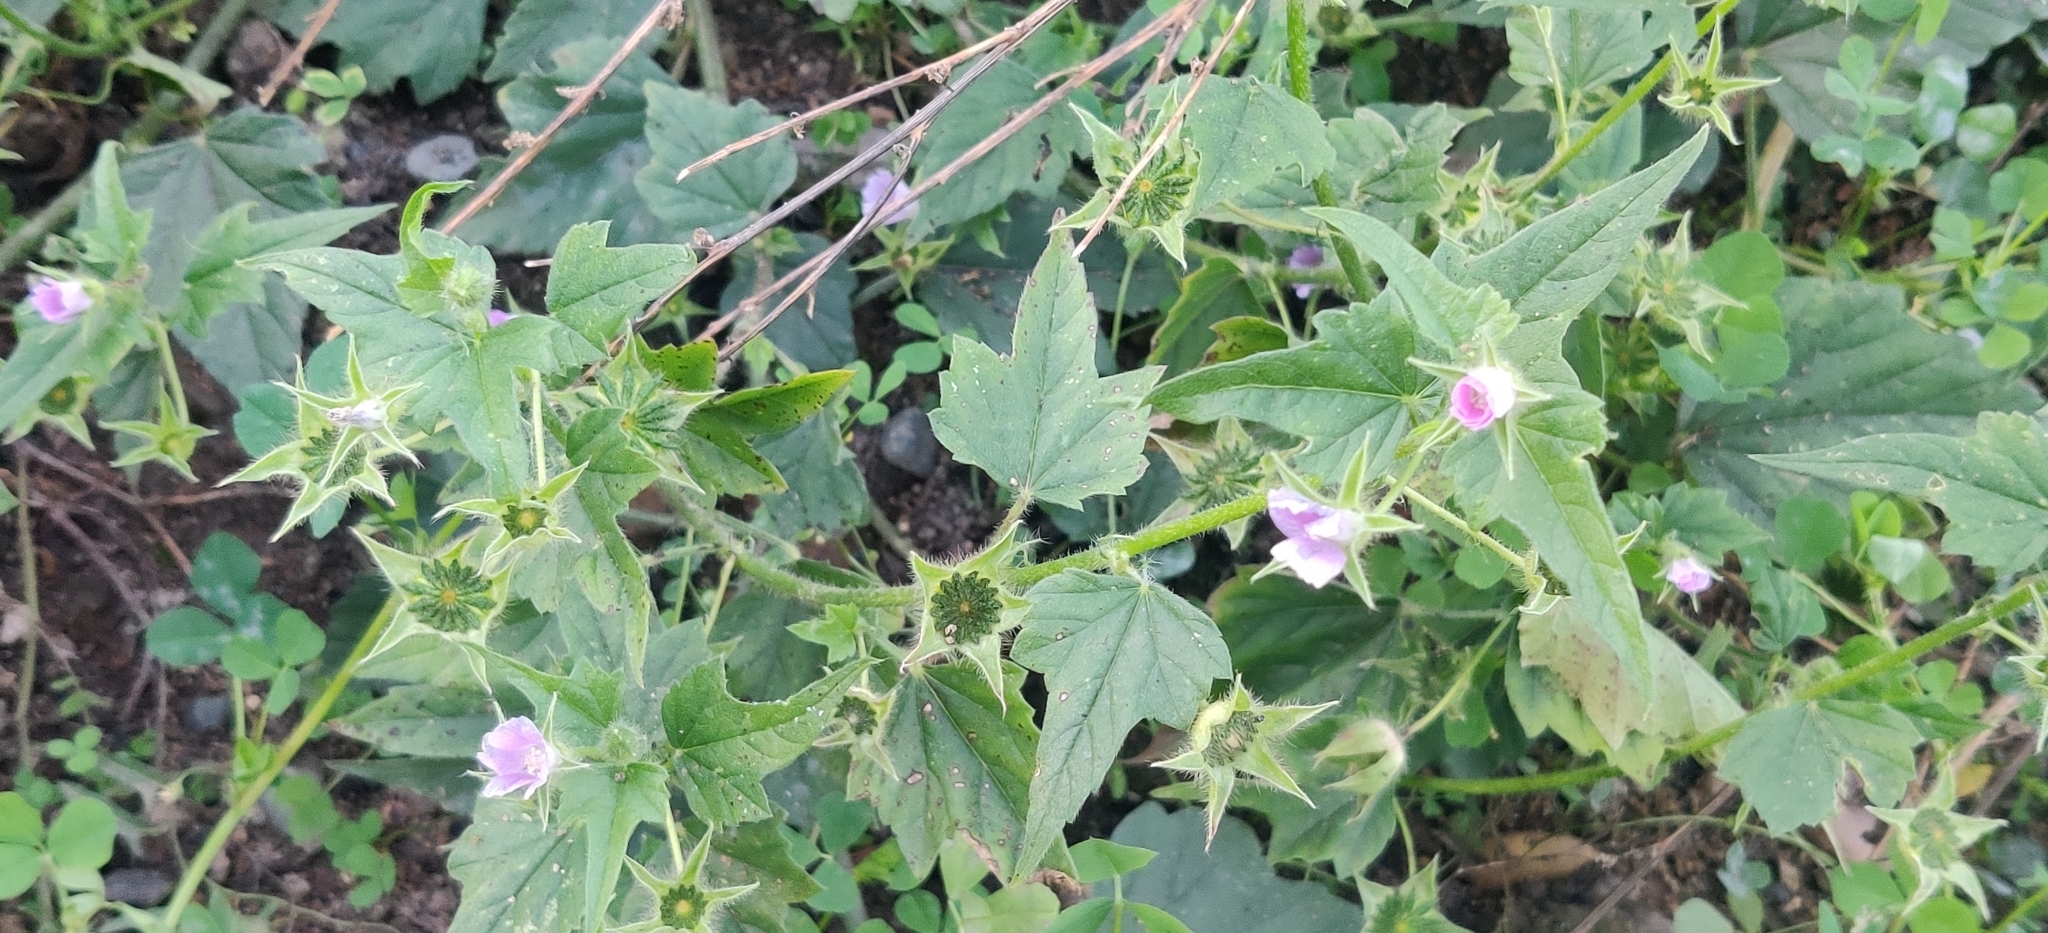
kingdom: Plantae
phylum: Tracheophyta
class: Magnoliopsida
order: Malvales
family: Malvaceae
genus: Anoda
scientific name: Anoda cristata
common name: Spurred anoda
